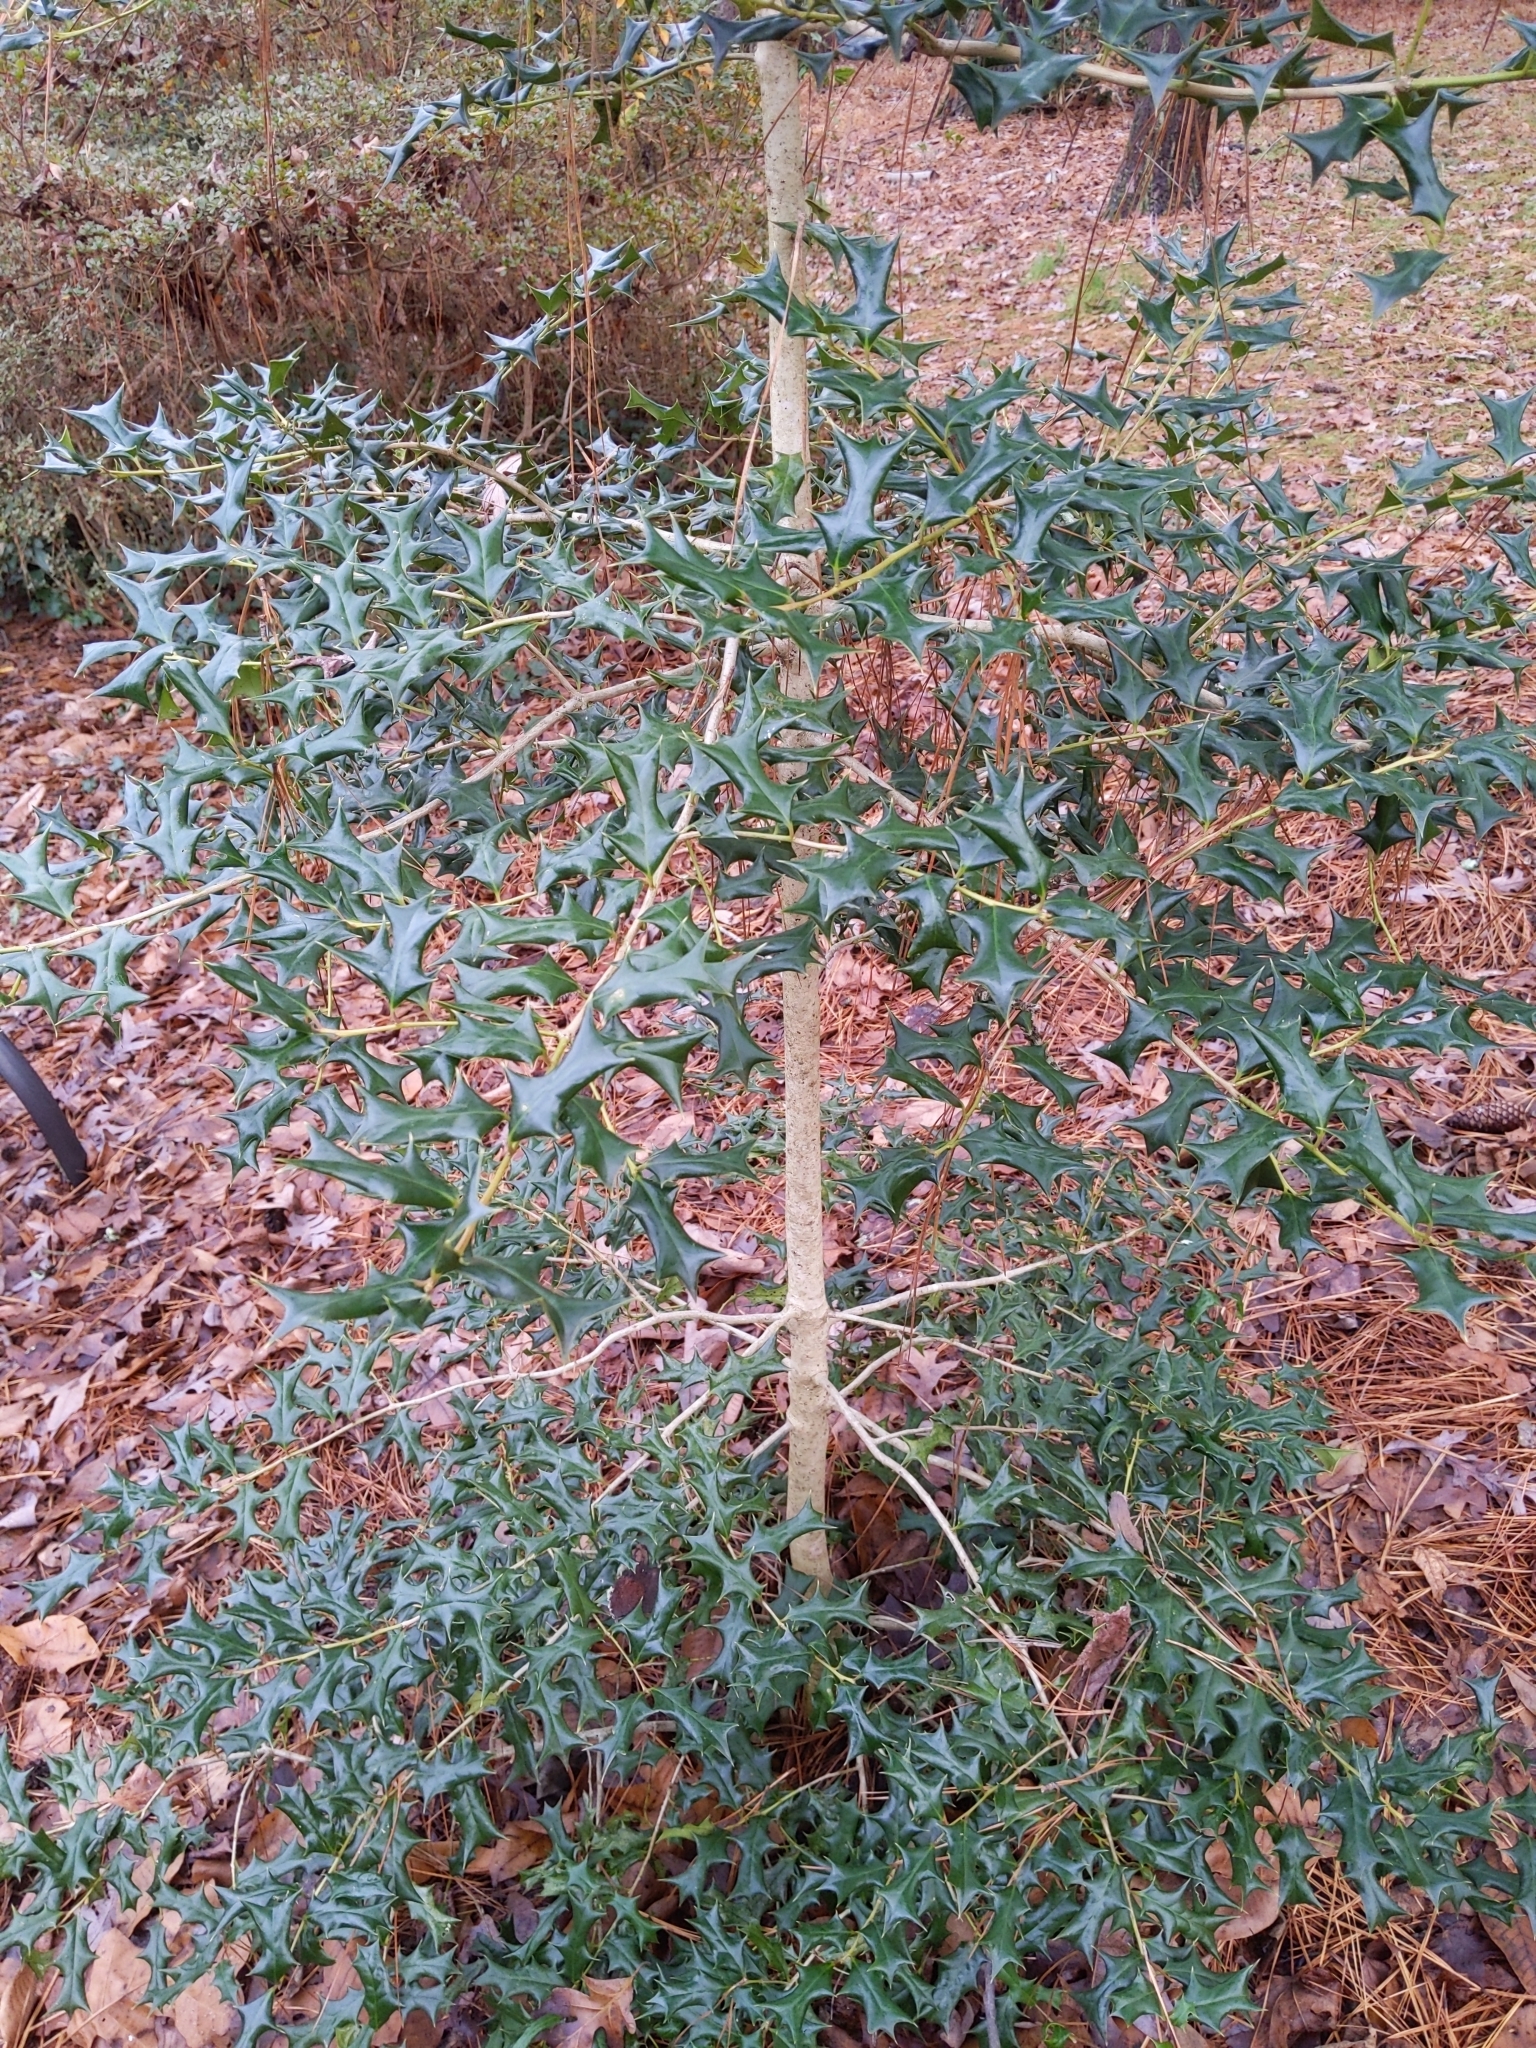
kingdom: Plantae
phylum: Tracheophyta
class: Magnoliopsida
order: Aquifoliales
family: Aquifoliaceae
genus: Ilex
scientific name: Ilex cornuta
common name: Chinese holly
